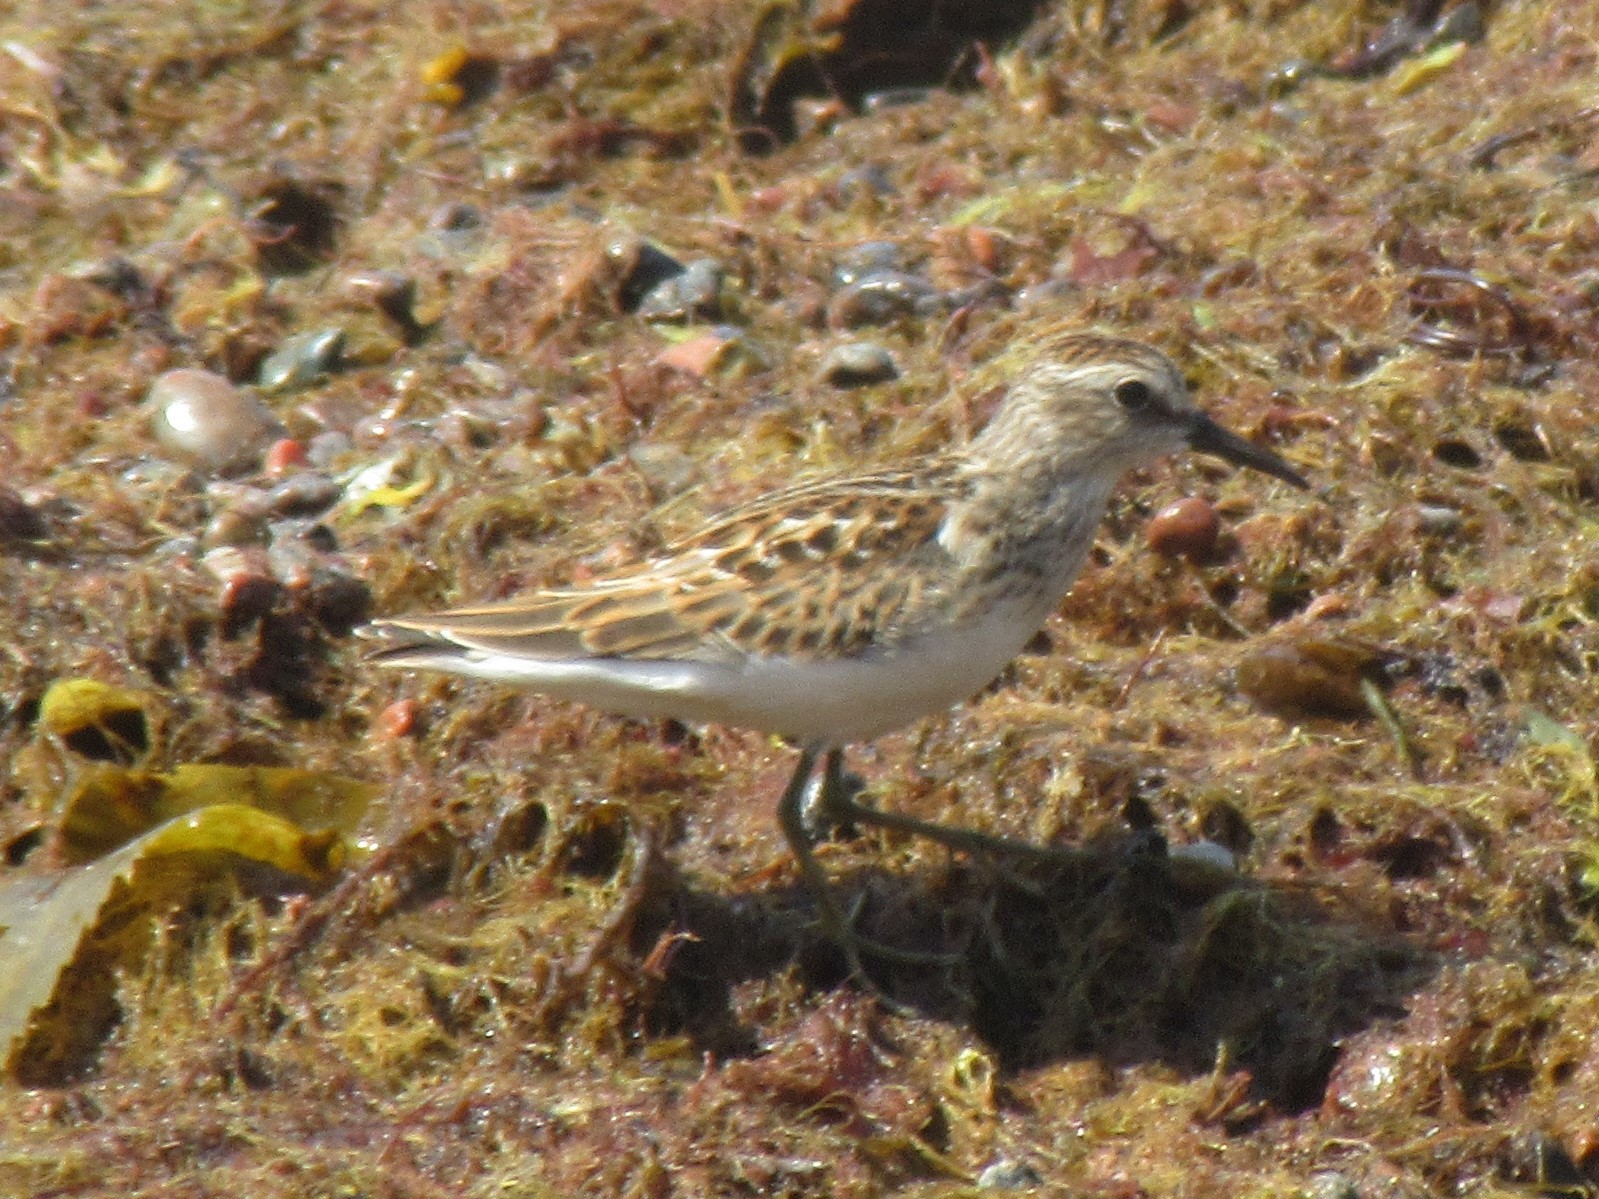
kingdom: Animalia
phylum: Chordata
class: Aves
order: Charadriiformes
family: Scolopacidae
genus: Calidris
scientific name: Calidris minutilla
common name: Least sandpiper
